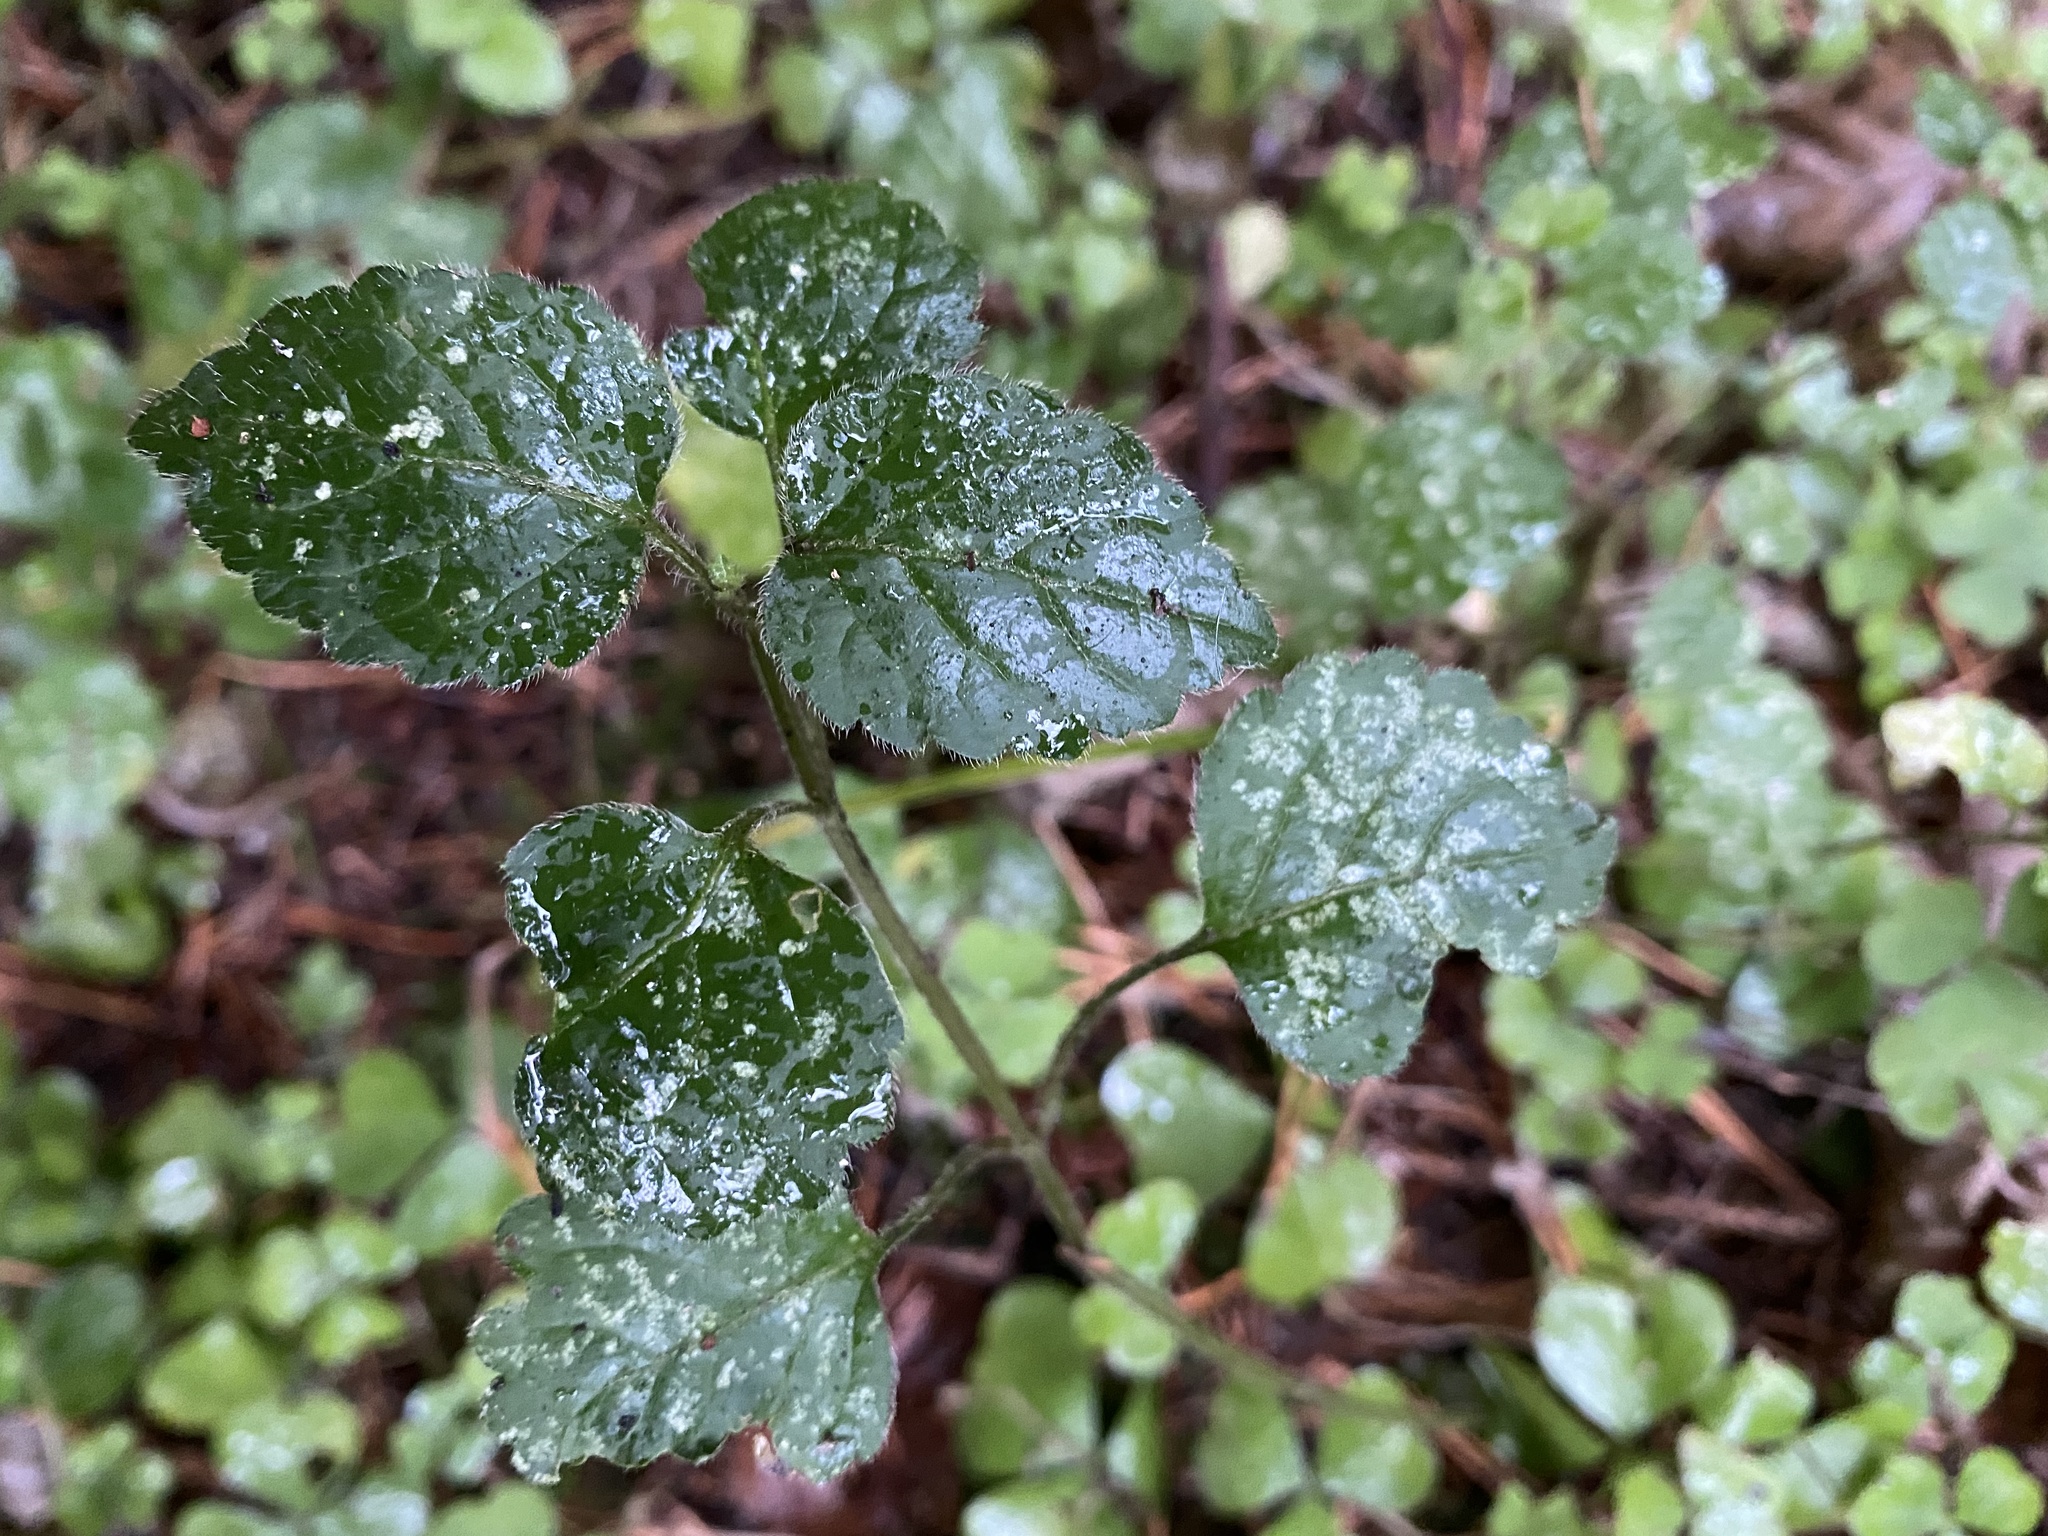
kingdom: Plantae
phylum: Tracheophyta
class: Magnoliopsida
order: Lamiales
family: Lamiaceae
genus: Lamium
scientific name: Lamium galeobdolon
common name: Yellow archangel
